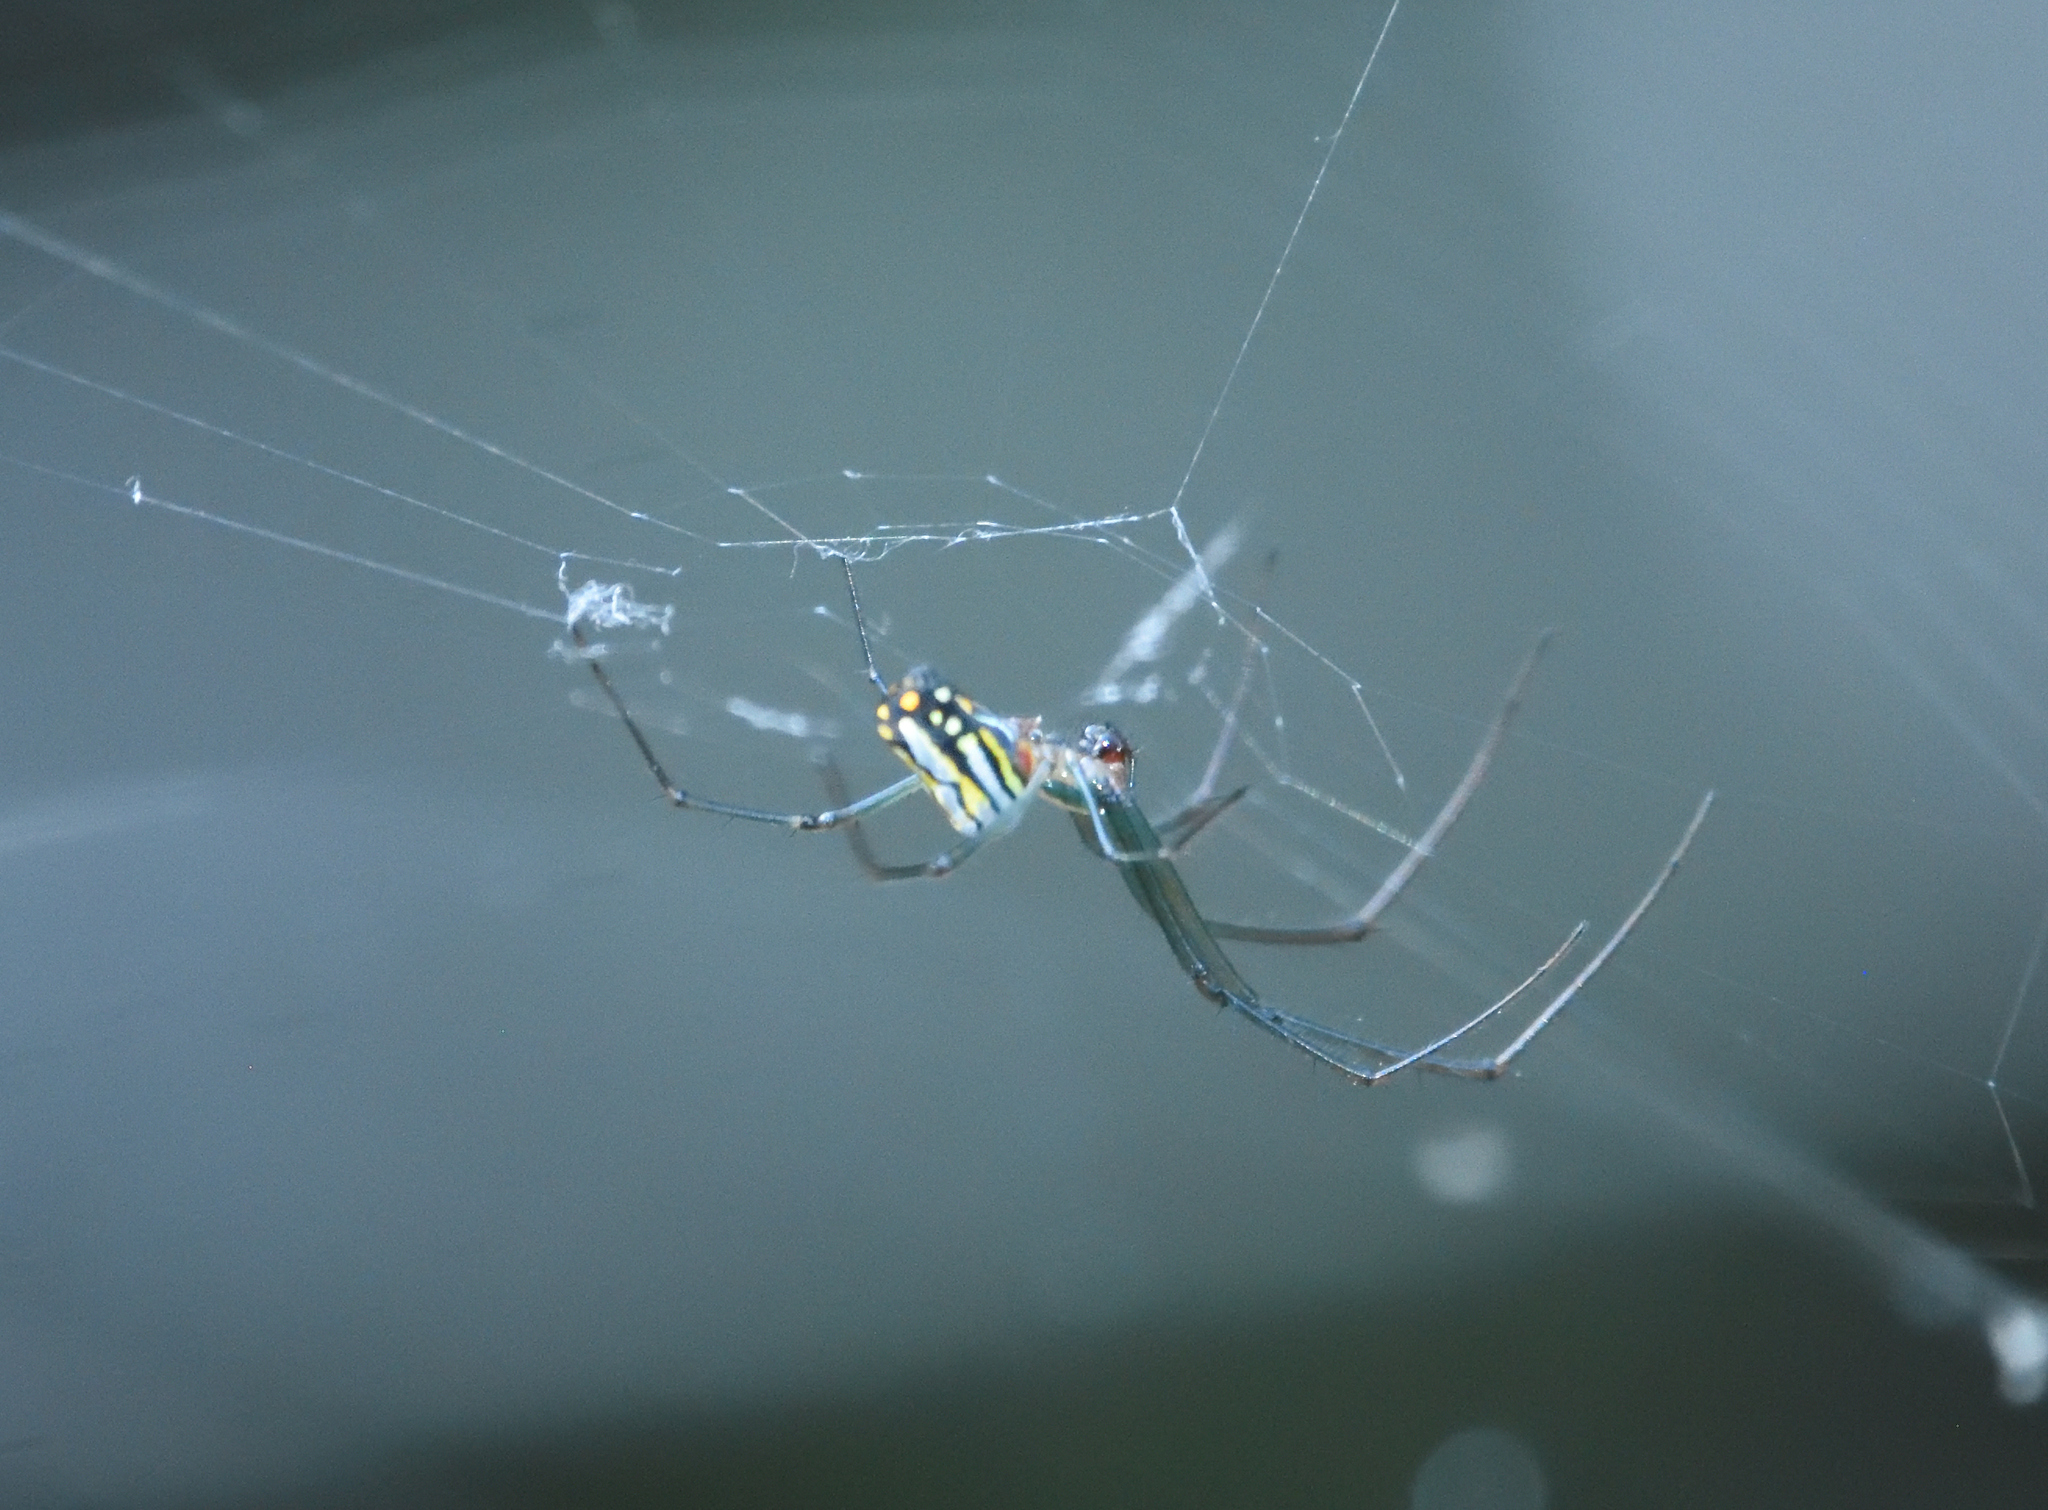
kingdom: Animalia
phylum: Arthropoda
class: Arachnida
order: Araneae
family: Tetragnathidae
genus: Leucauge
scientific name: Leucauge argyra
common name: Longjawed orb weavers
